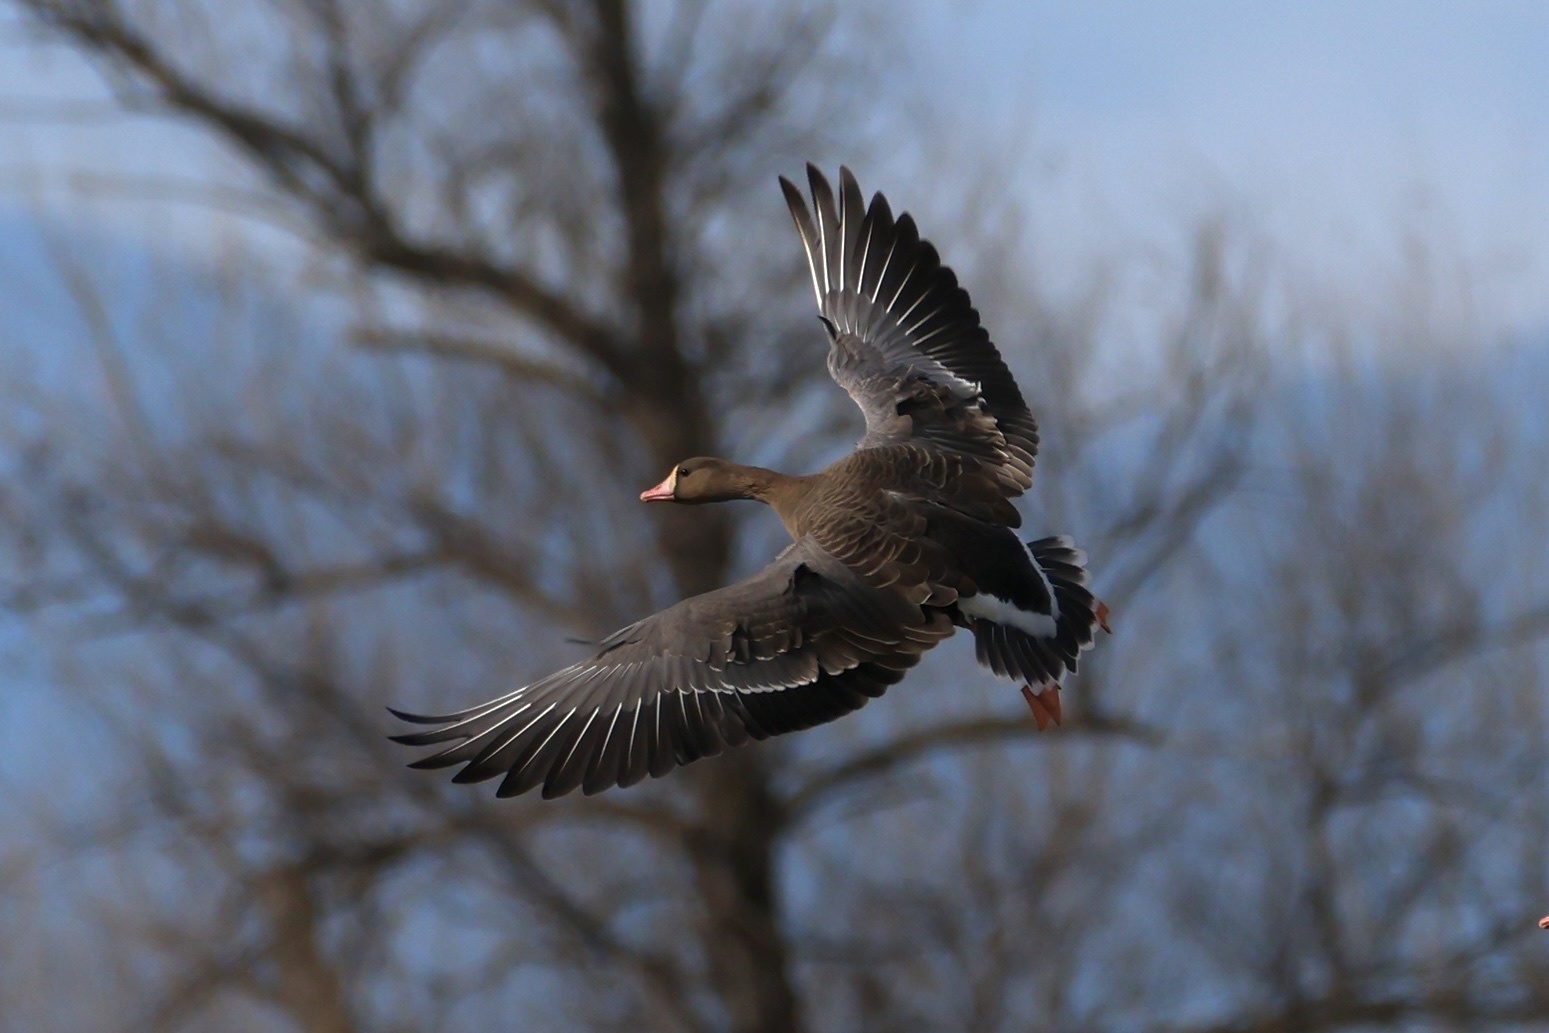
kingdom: Animalia
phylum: Chordata
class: Aves
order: Anseriformes
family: Anatidae
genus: Anser
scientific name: Anser albifrons
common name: Greater white-fronted goose
